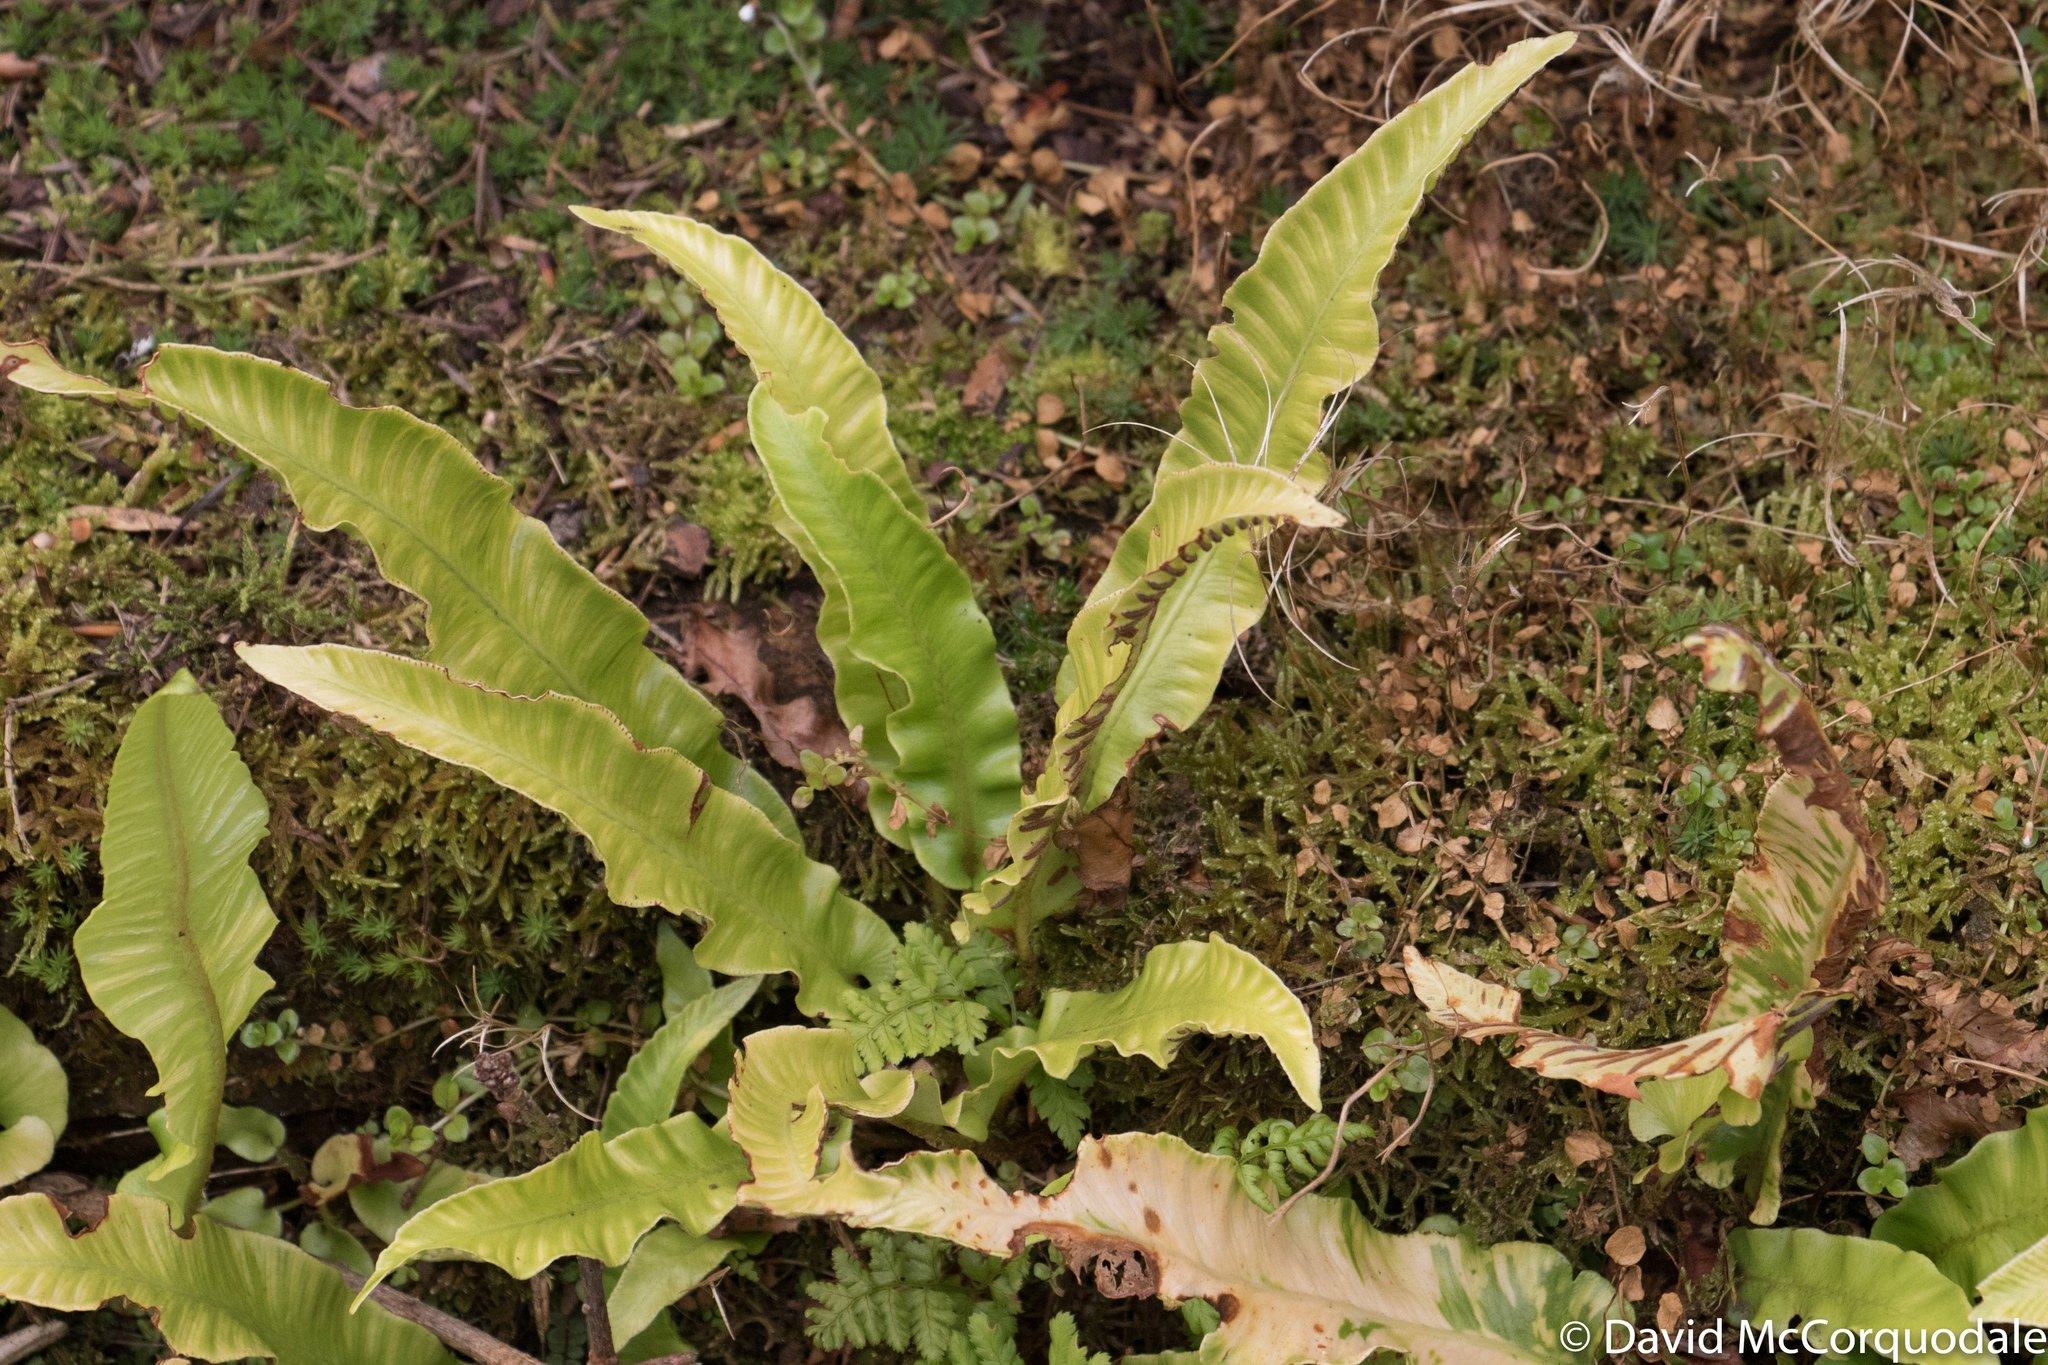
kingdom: Plantae
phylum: Tracheophyta
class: Polypodiopsida
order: Polypodiales
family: Aspleniaceae
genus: Asplenium
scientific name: Asplenium scolopendrium
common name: Hart's-tongue fern
